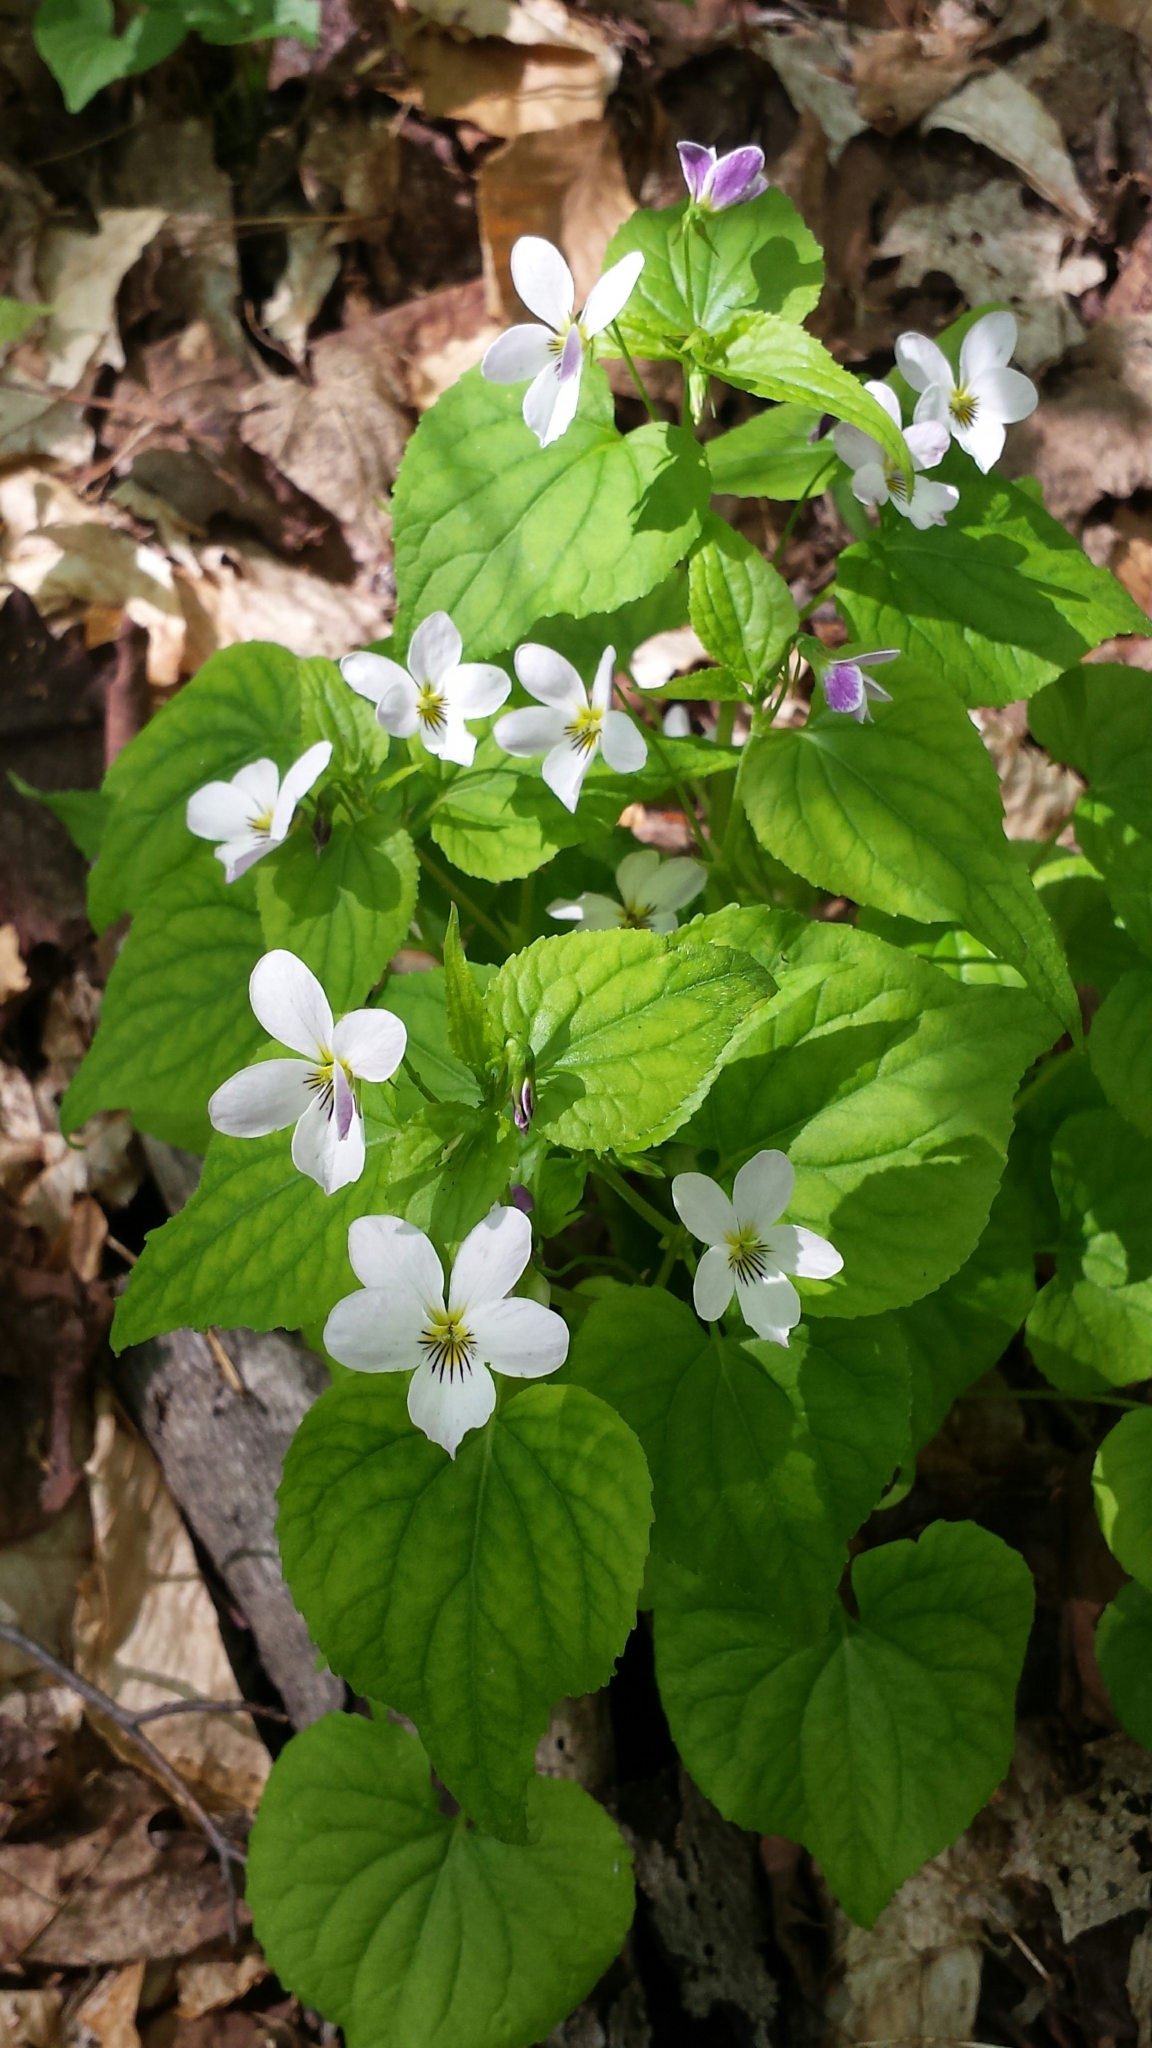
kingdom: Plantae
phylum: Tracheophyta
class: Magnoliopsida
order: Malpighiales
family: Violaceae
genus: Viola
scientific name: Viola canadensis
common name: Canada violet
